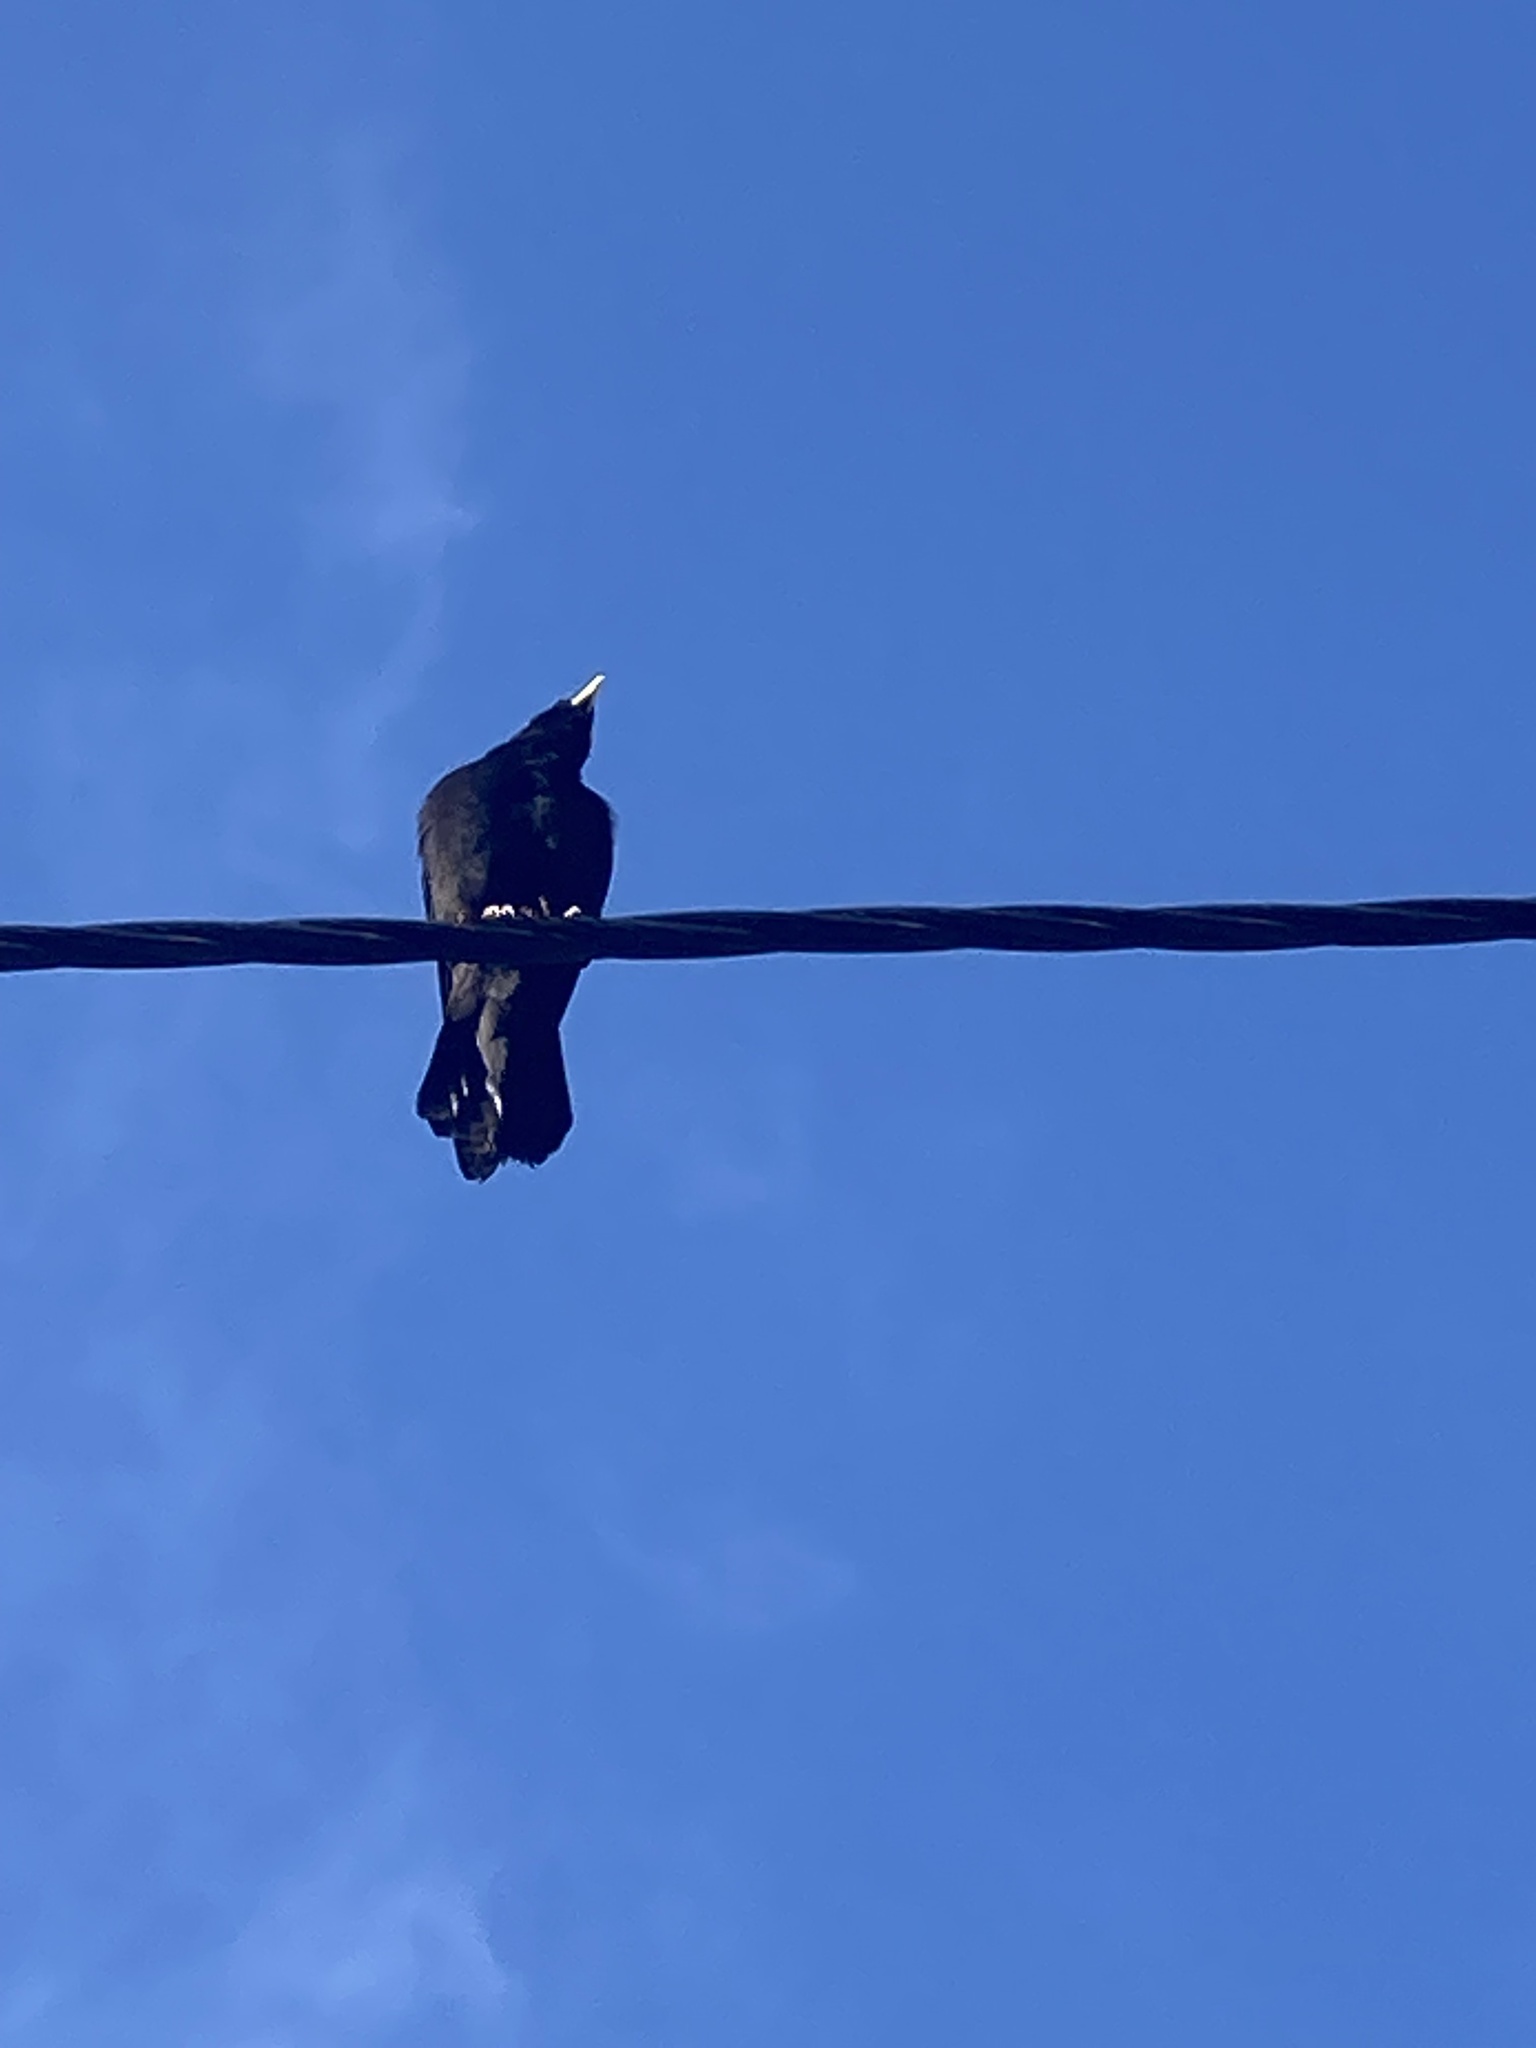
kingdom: Animalia
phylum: Chordata
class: Aves
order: Passeriformes
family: Corvidae
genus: Pyrrhocorax
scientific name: Pyrrhocorax graculus
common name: Alpine chough
